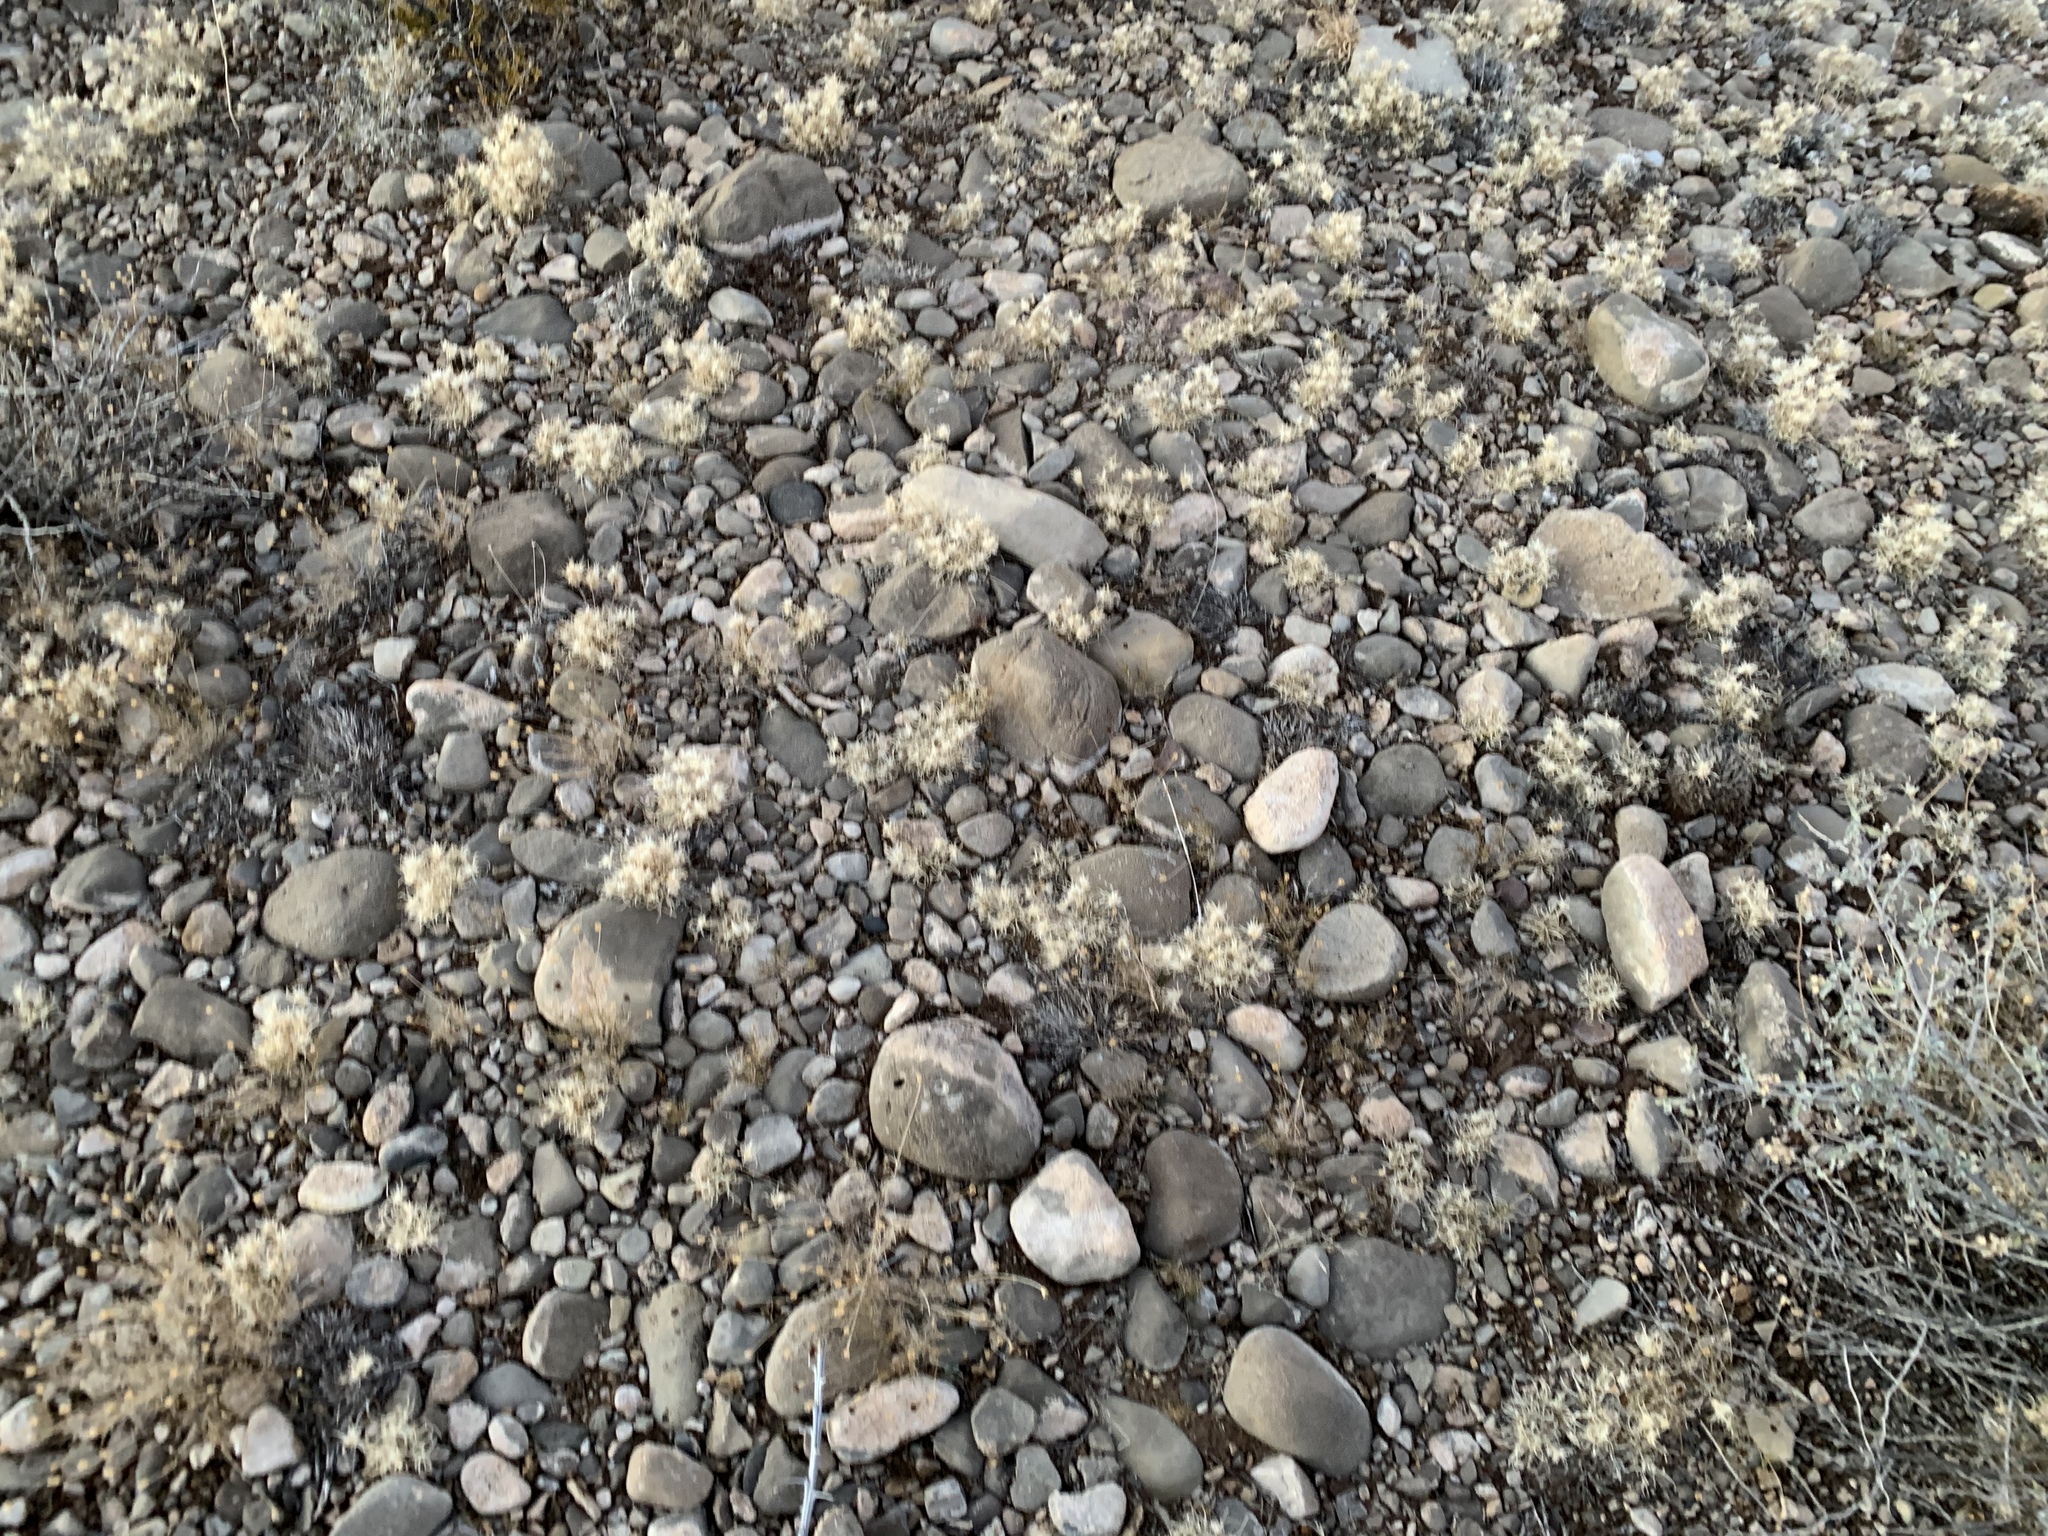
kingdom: Plantae
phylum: Tracheophyta
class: Liliopsida
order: Poales
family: Poaceae
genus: Dasyochloa
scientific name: Dasyochloa pulchella
